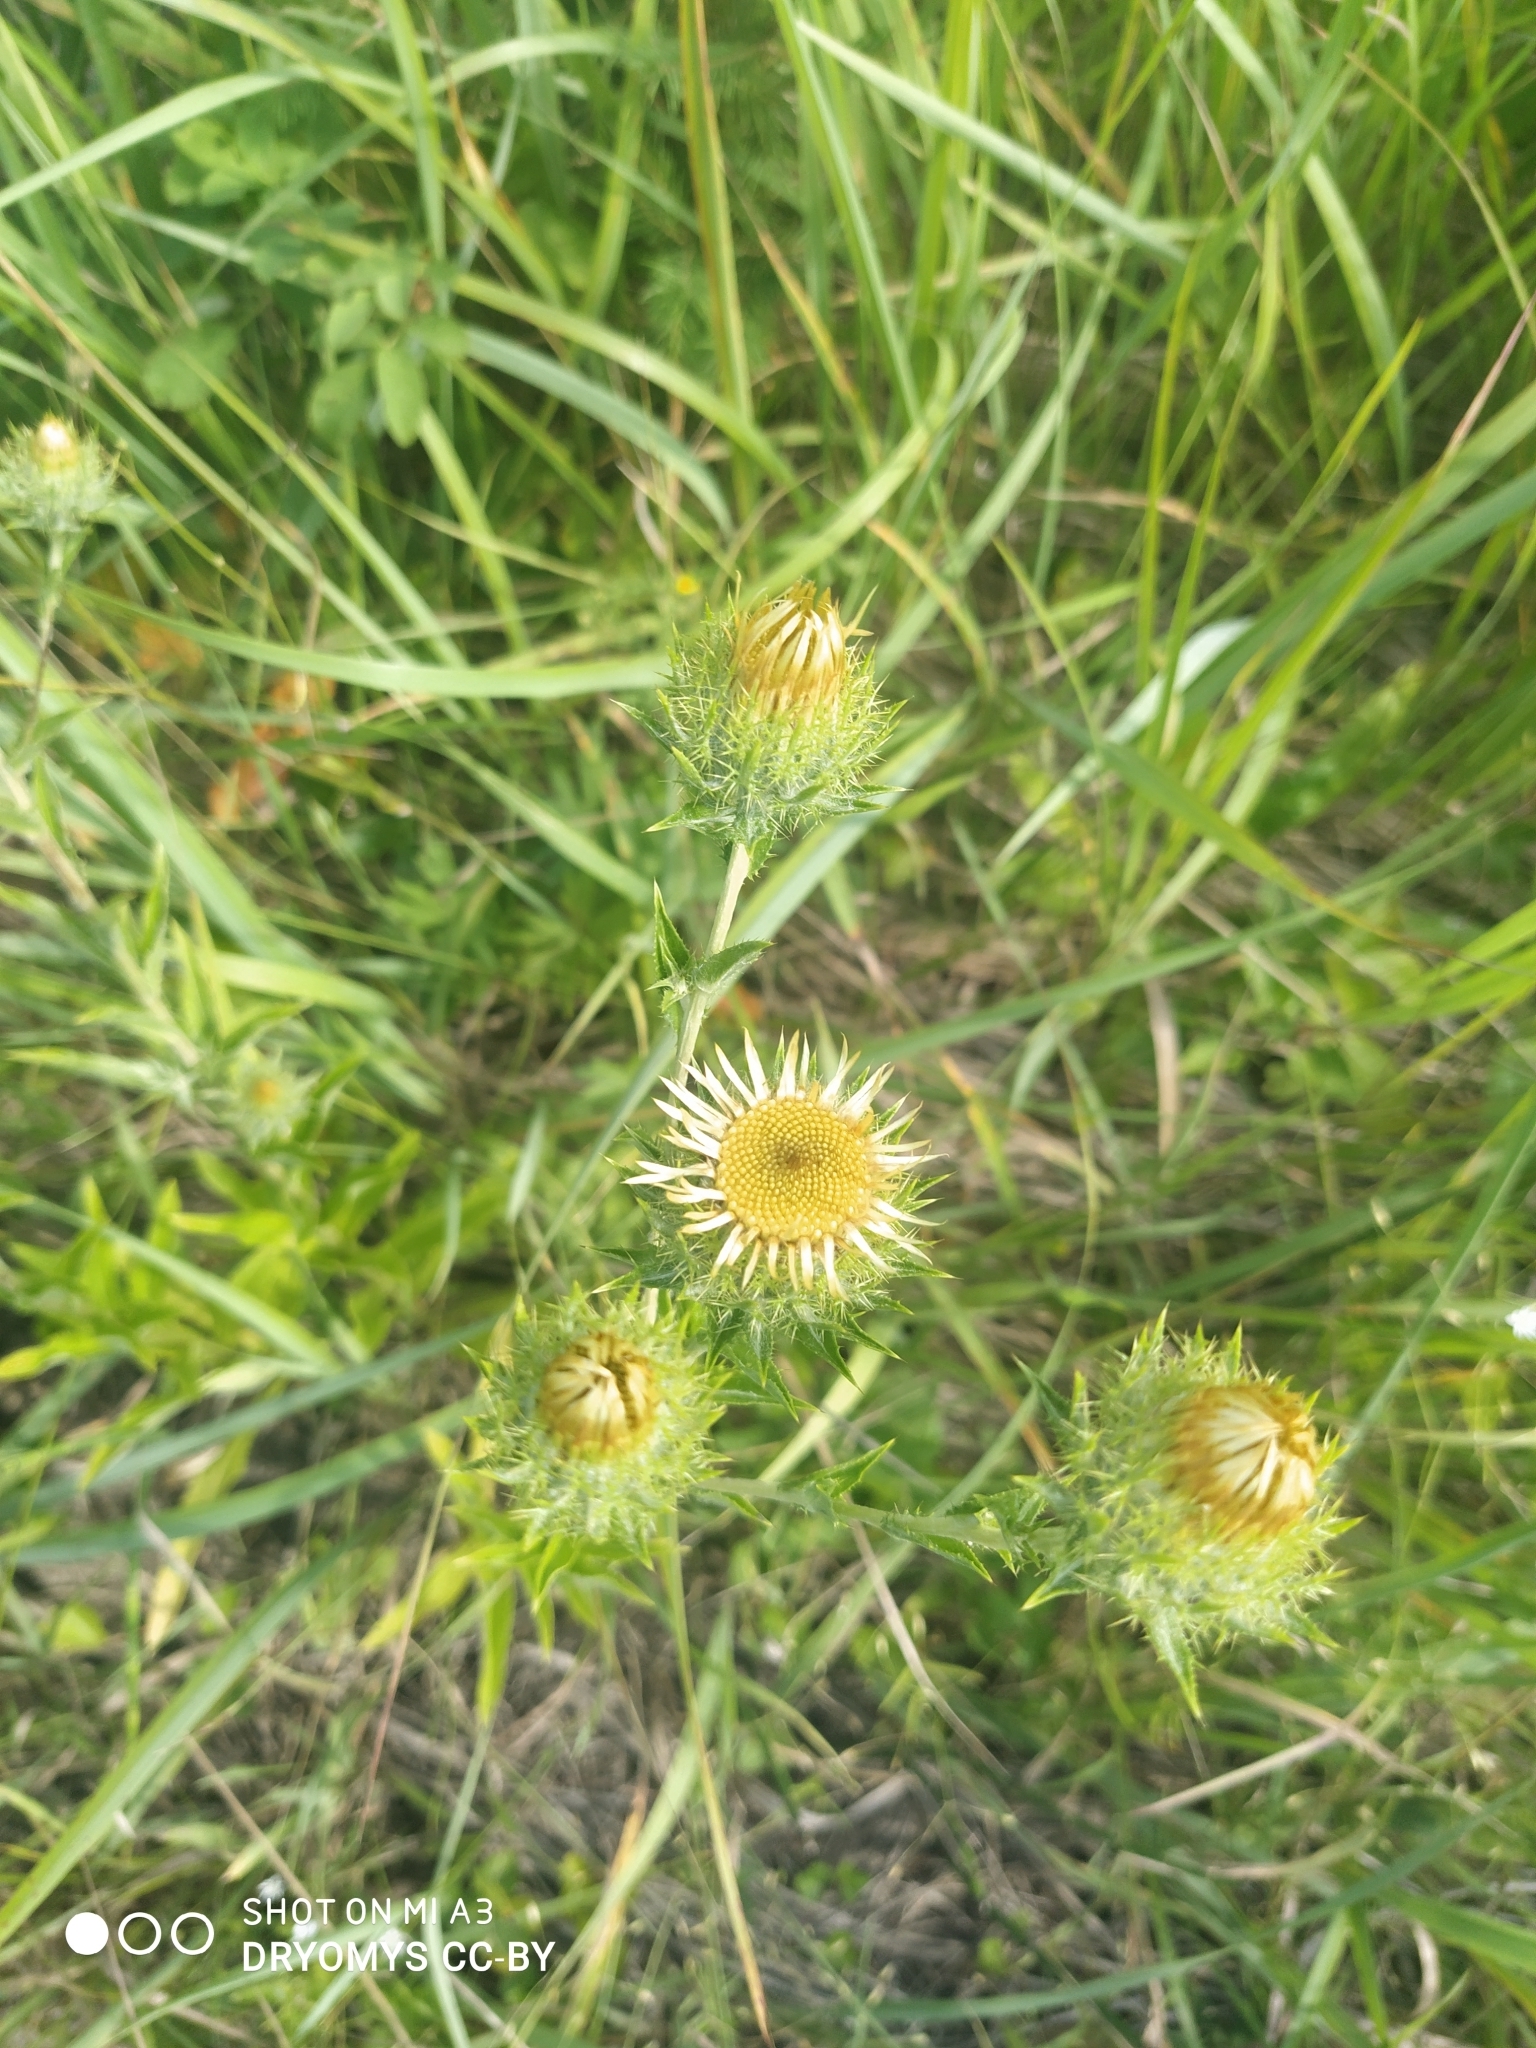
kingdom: Plantae
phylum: Tracheophyta
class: Magnoliopsida
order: Asterales
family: Asteraceae
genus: Carlina
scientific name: Carlina biebersteinii
